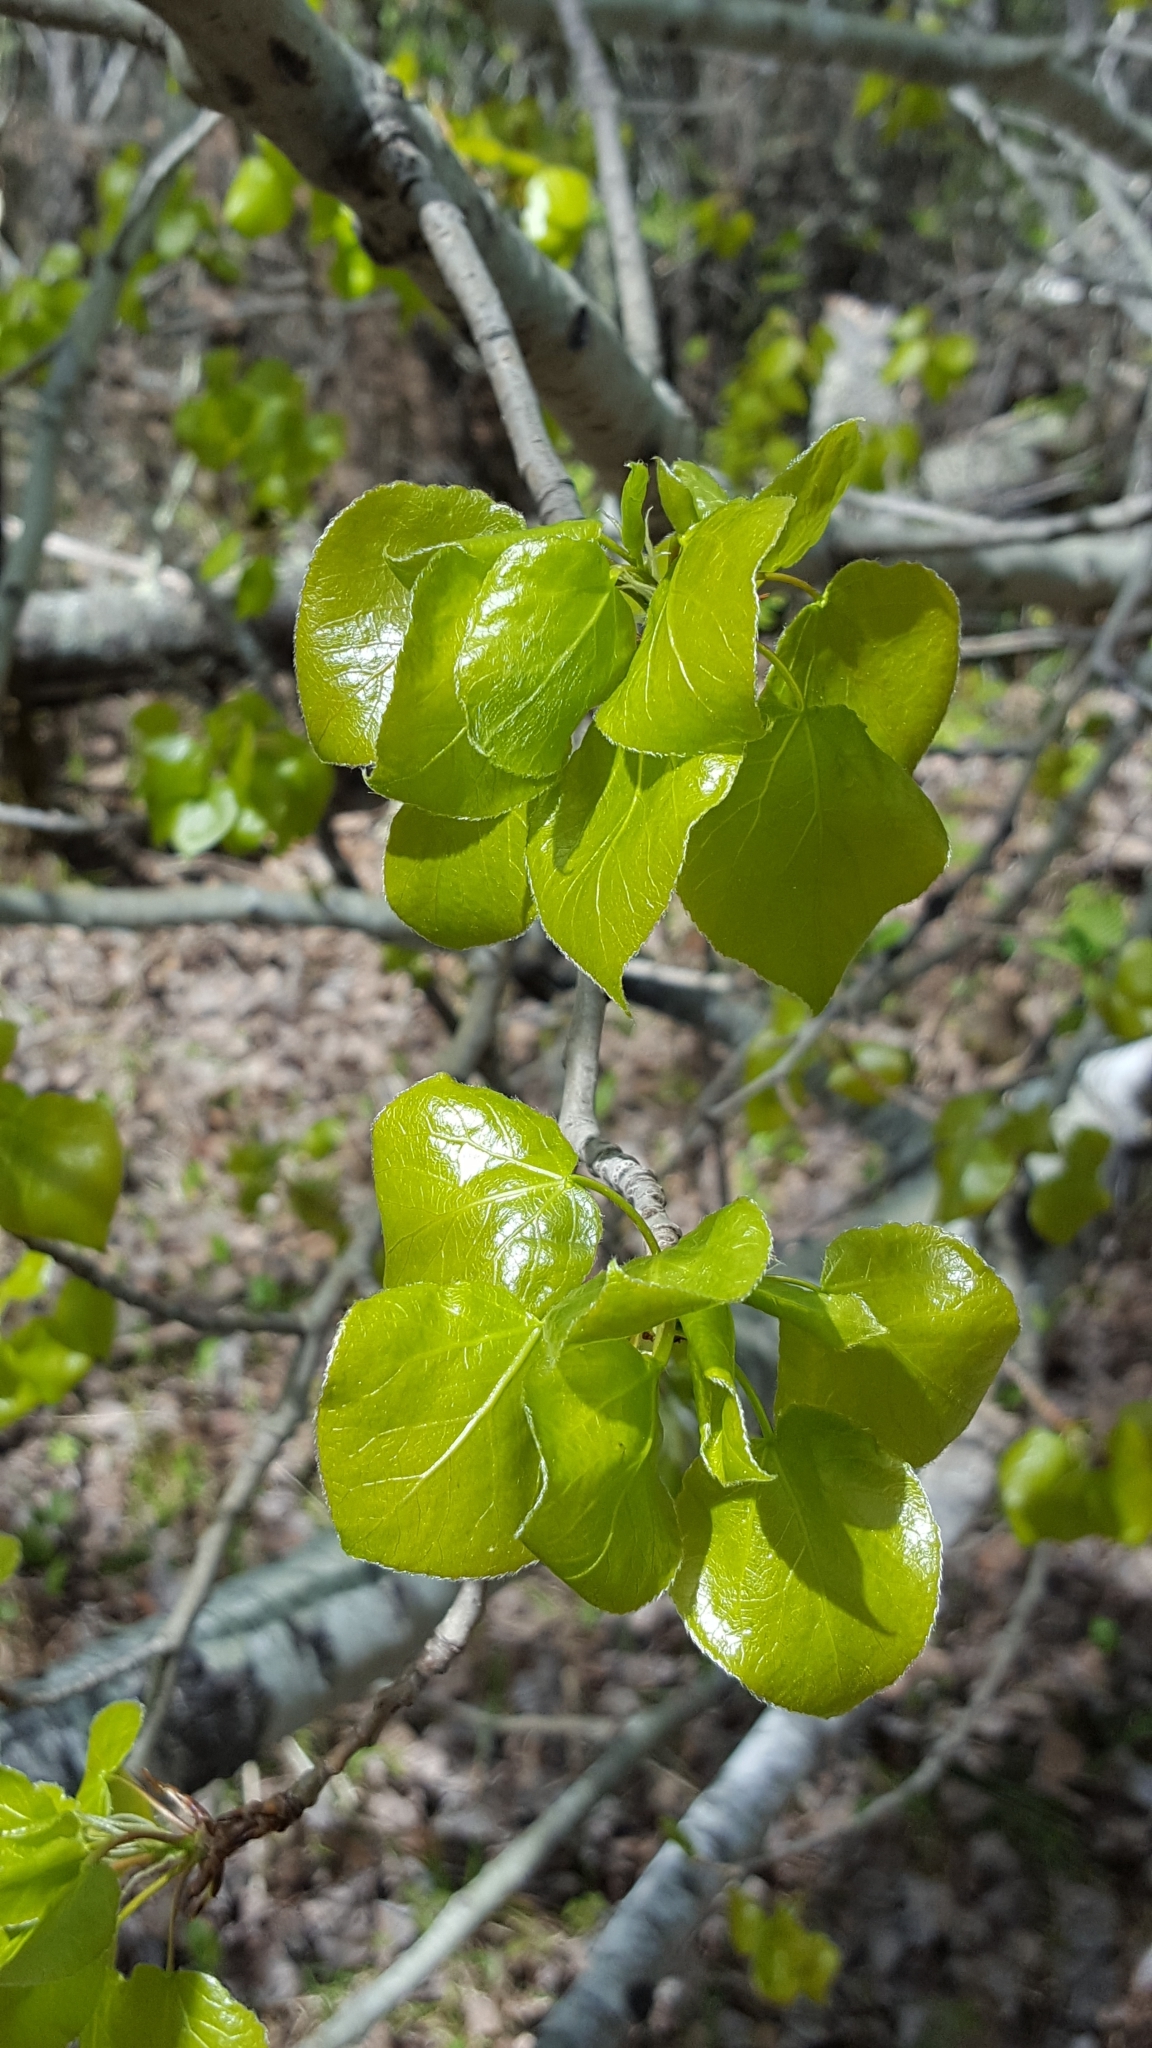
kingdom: Plantae
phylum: Tracheophyta
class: Magnoliopsida
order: Malpighiales
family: Salicaceae
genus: Populus
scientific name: Populus tremuloides
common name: Quaking aspen
